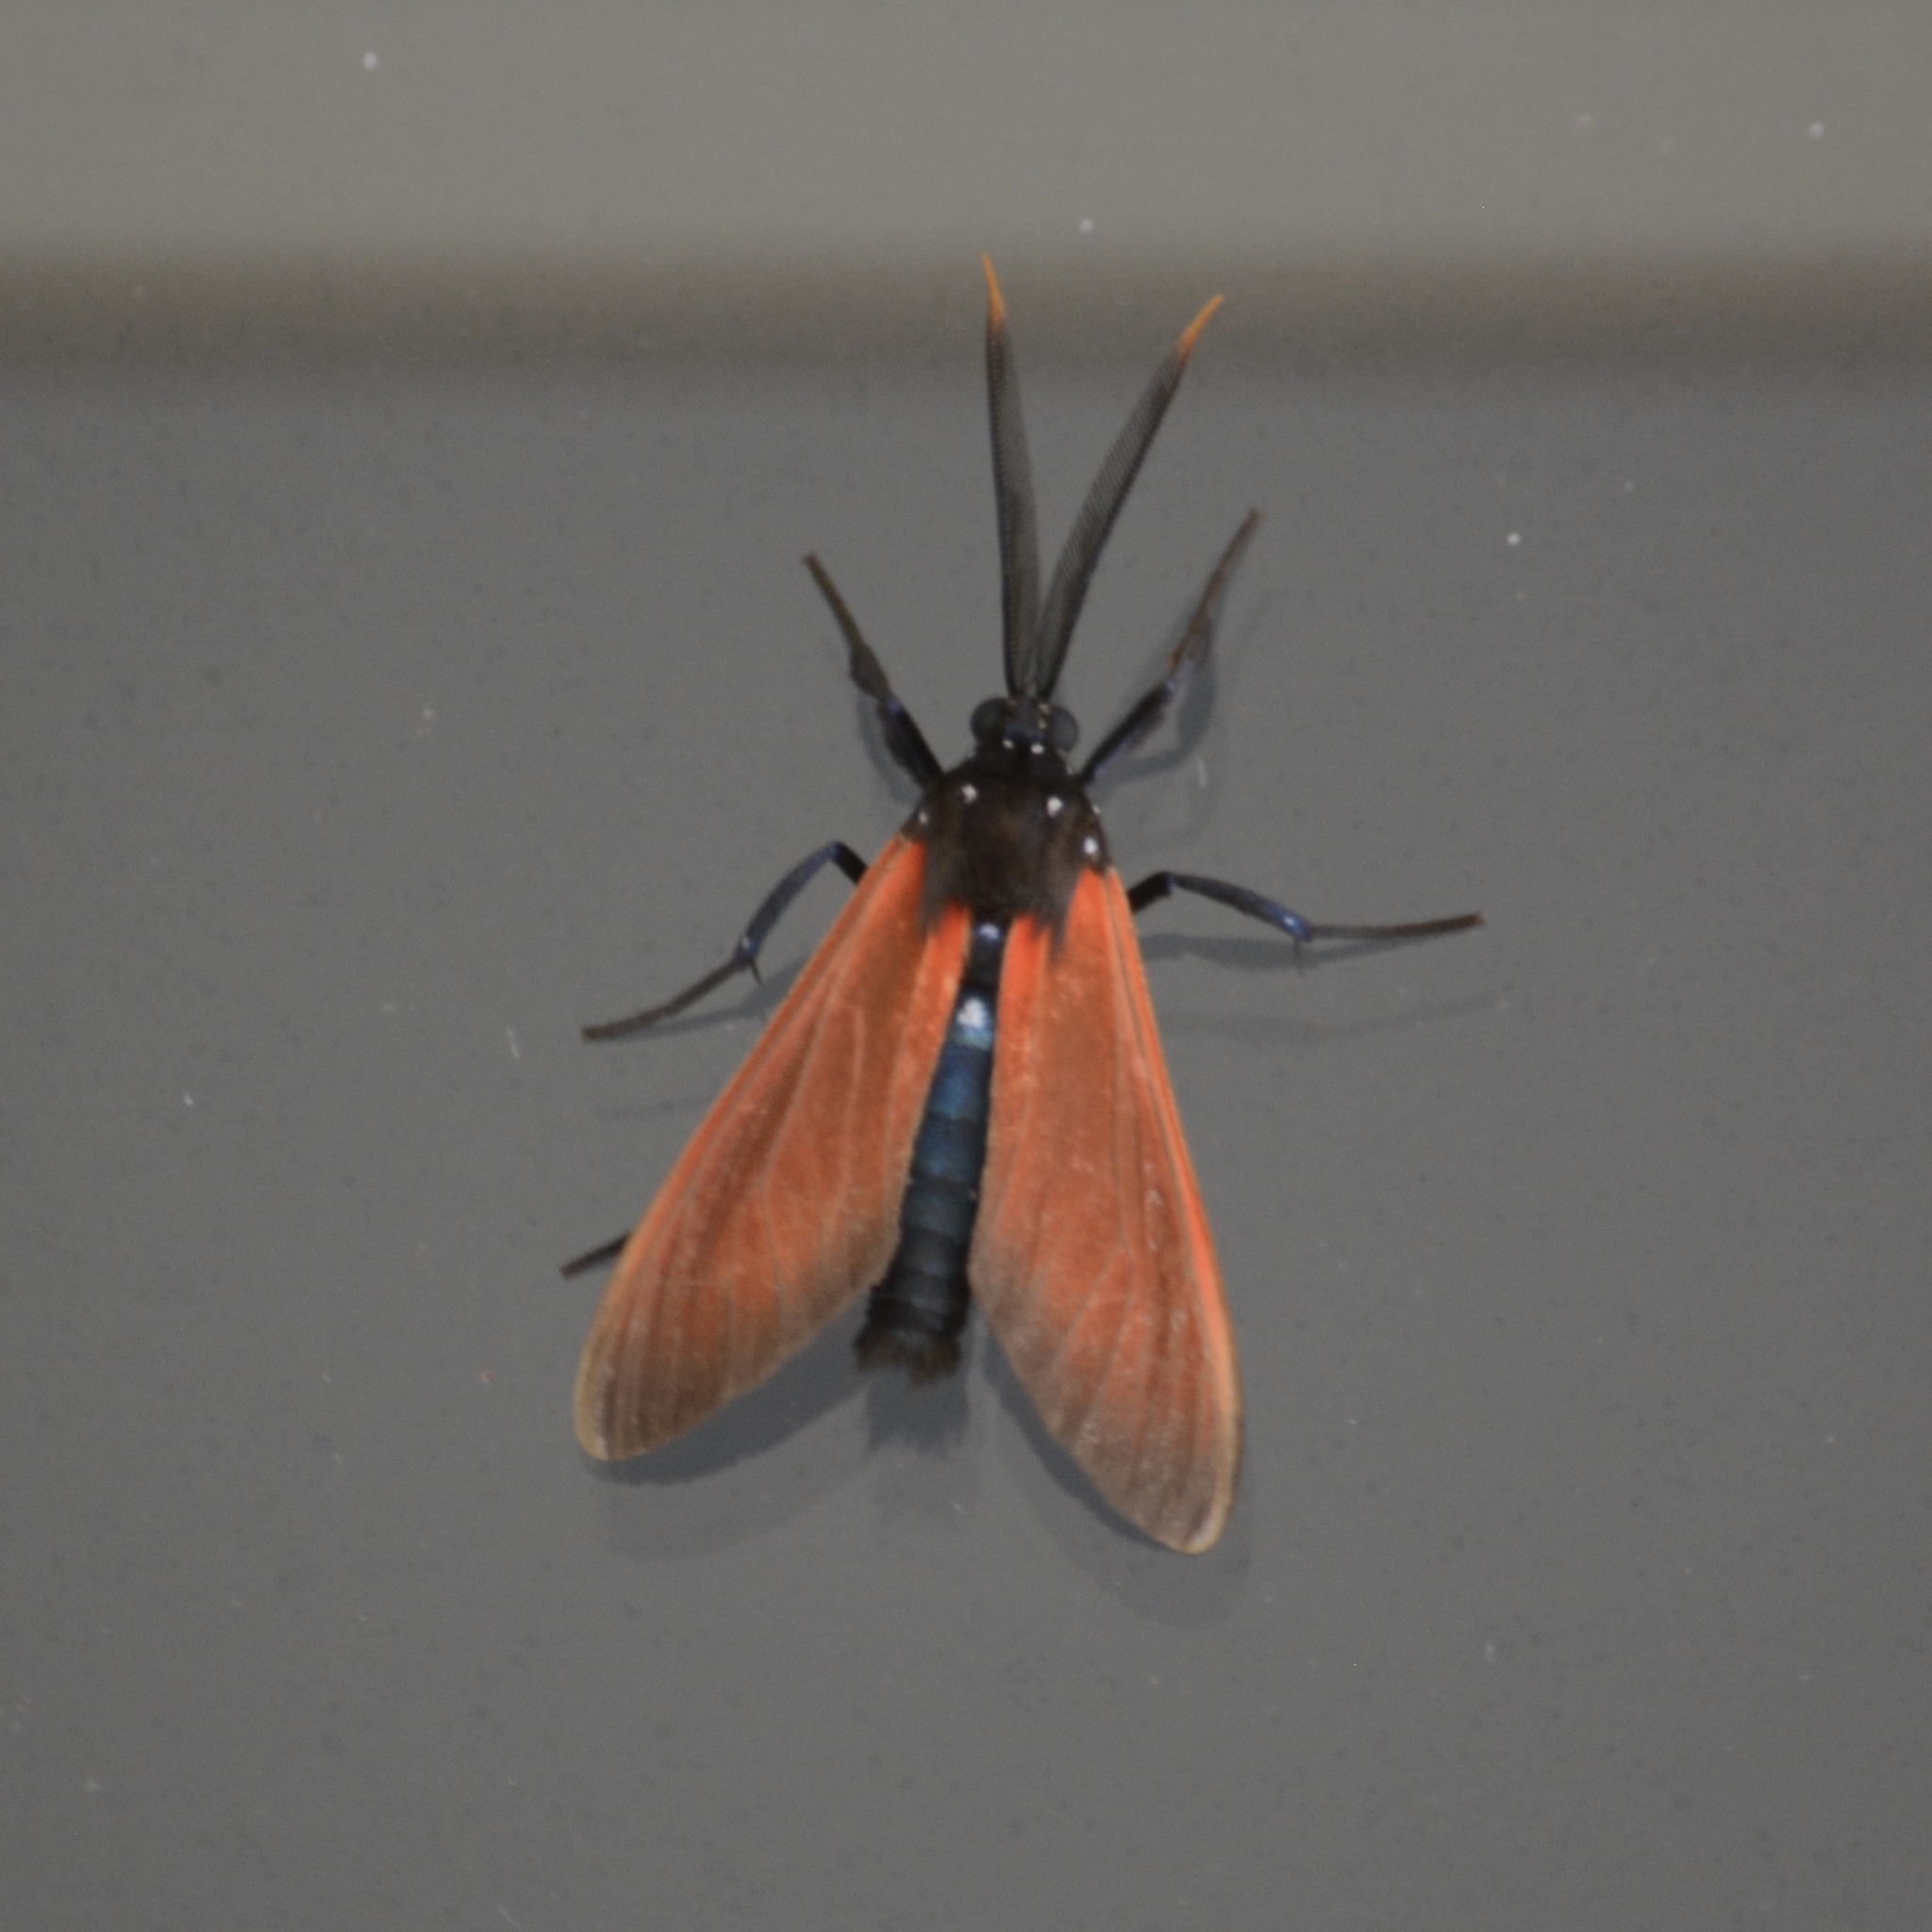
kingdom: Animalia
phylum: Arthropoda
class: Insecta
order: Lepidoptera
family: Erebidae
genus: Empyreuma
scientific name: Empyreuma pugione
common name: Spotted oleander caterpillar moth
